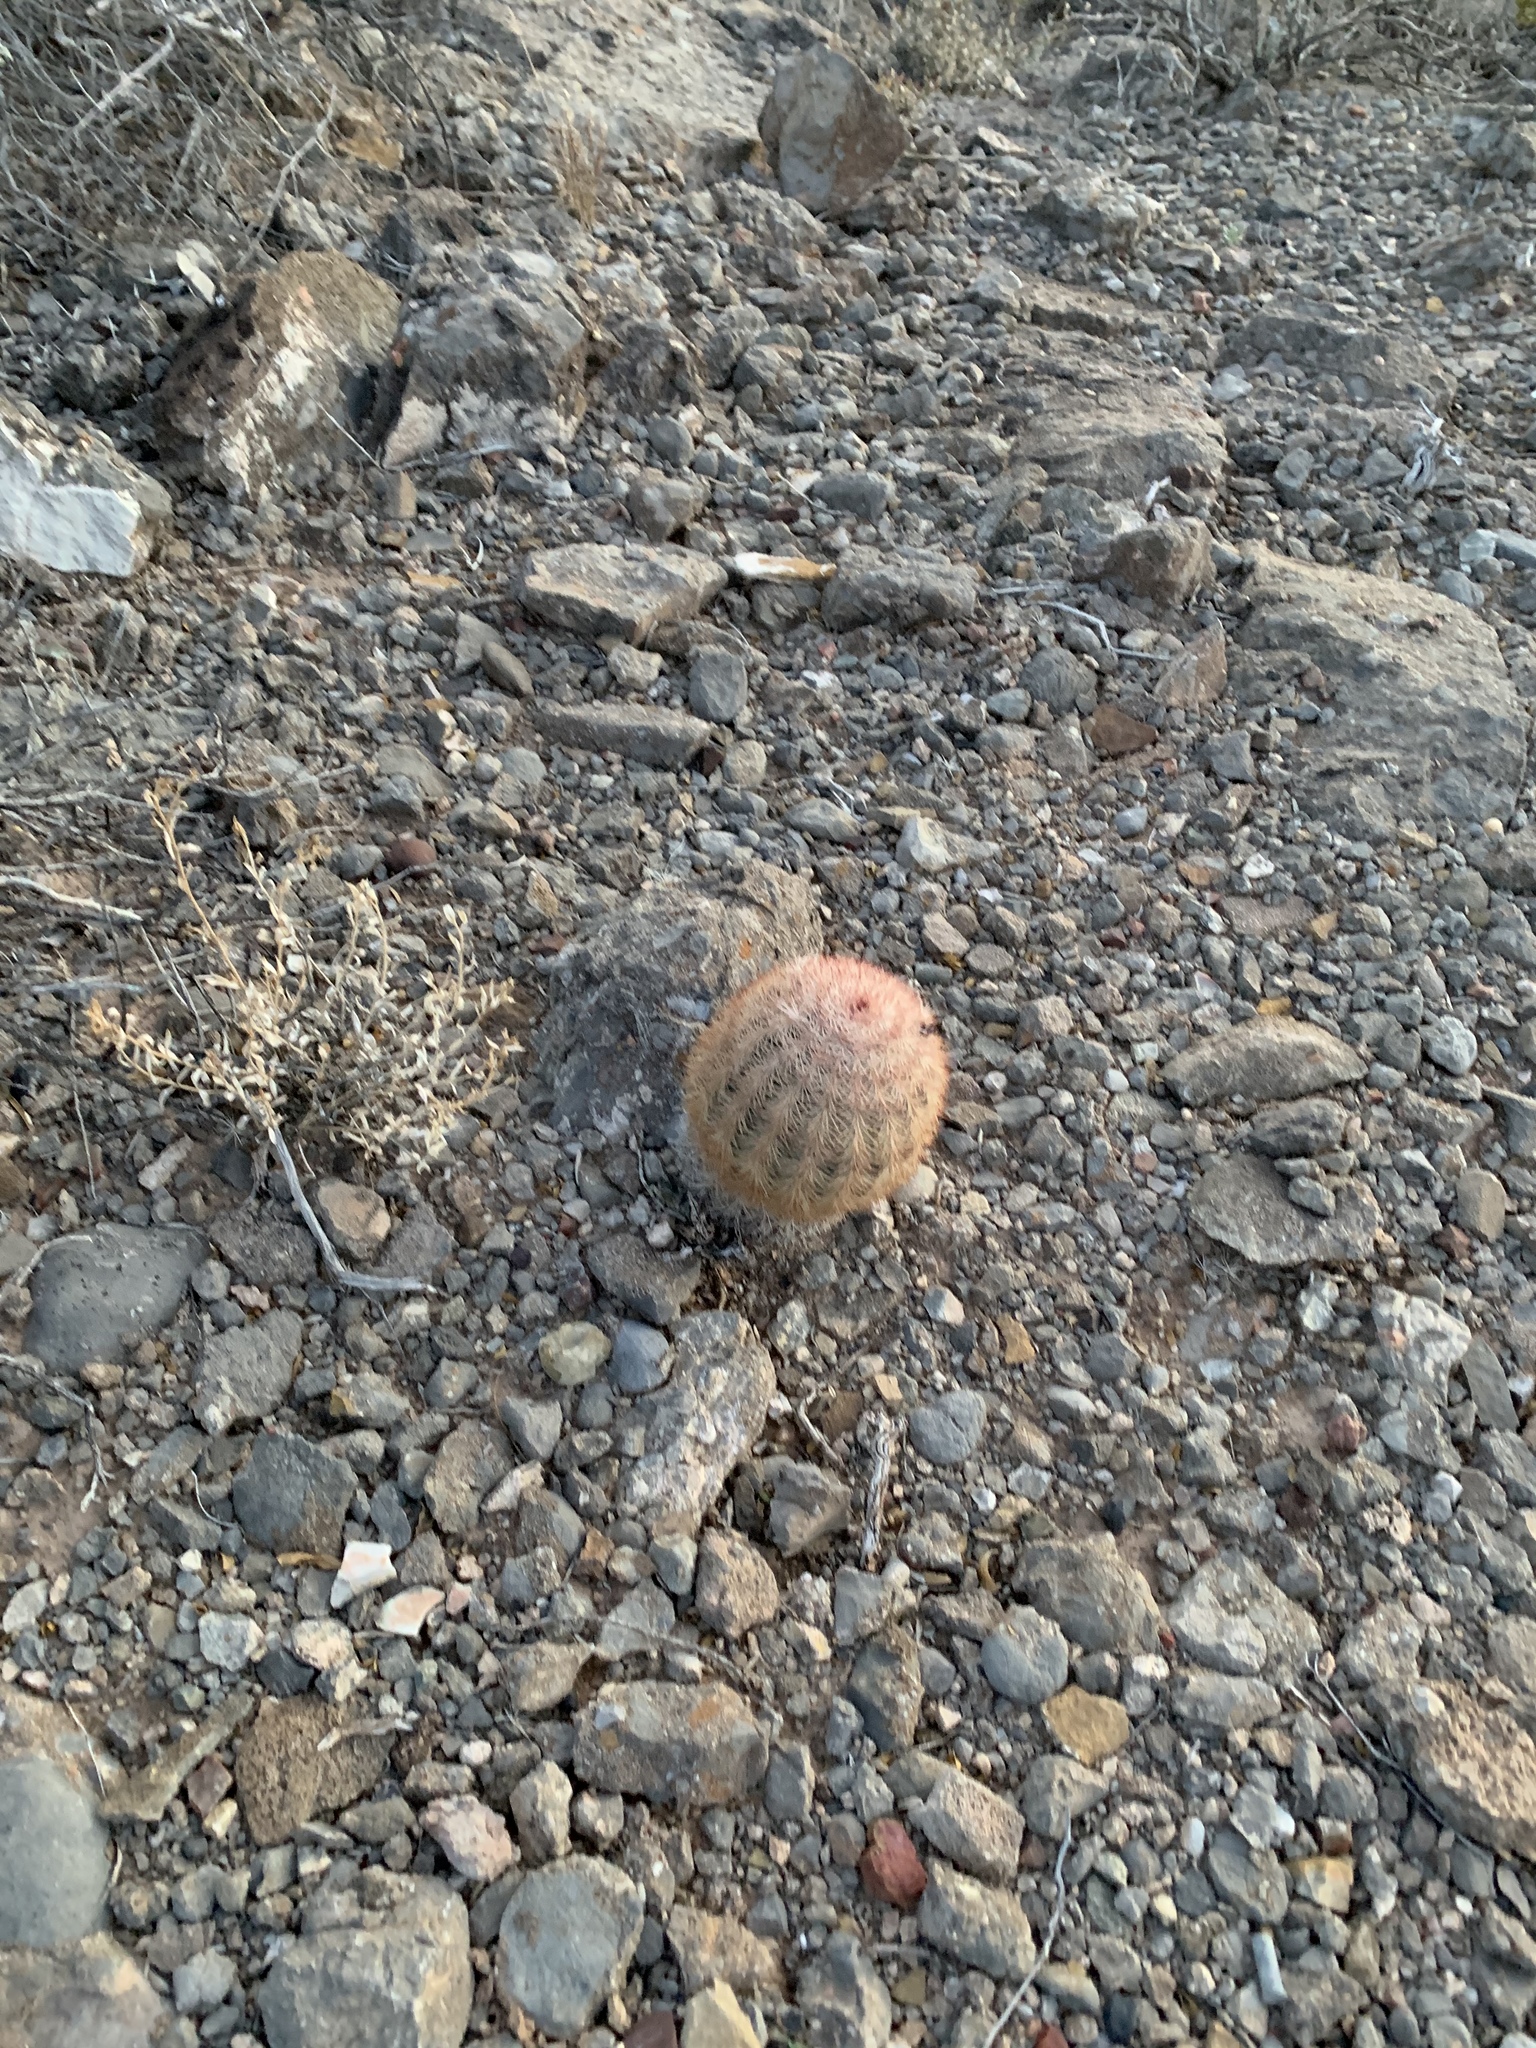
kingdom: Plantae
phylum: Tracheophyta
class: Magnoliopsida
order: Caryophyllales
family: Cactaceae
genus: Echinocereus
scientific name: Echinocereus dasyacanthus
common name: Spiny hedgehog cactus
